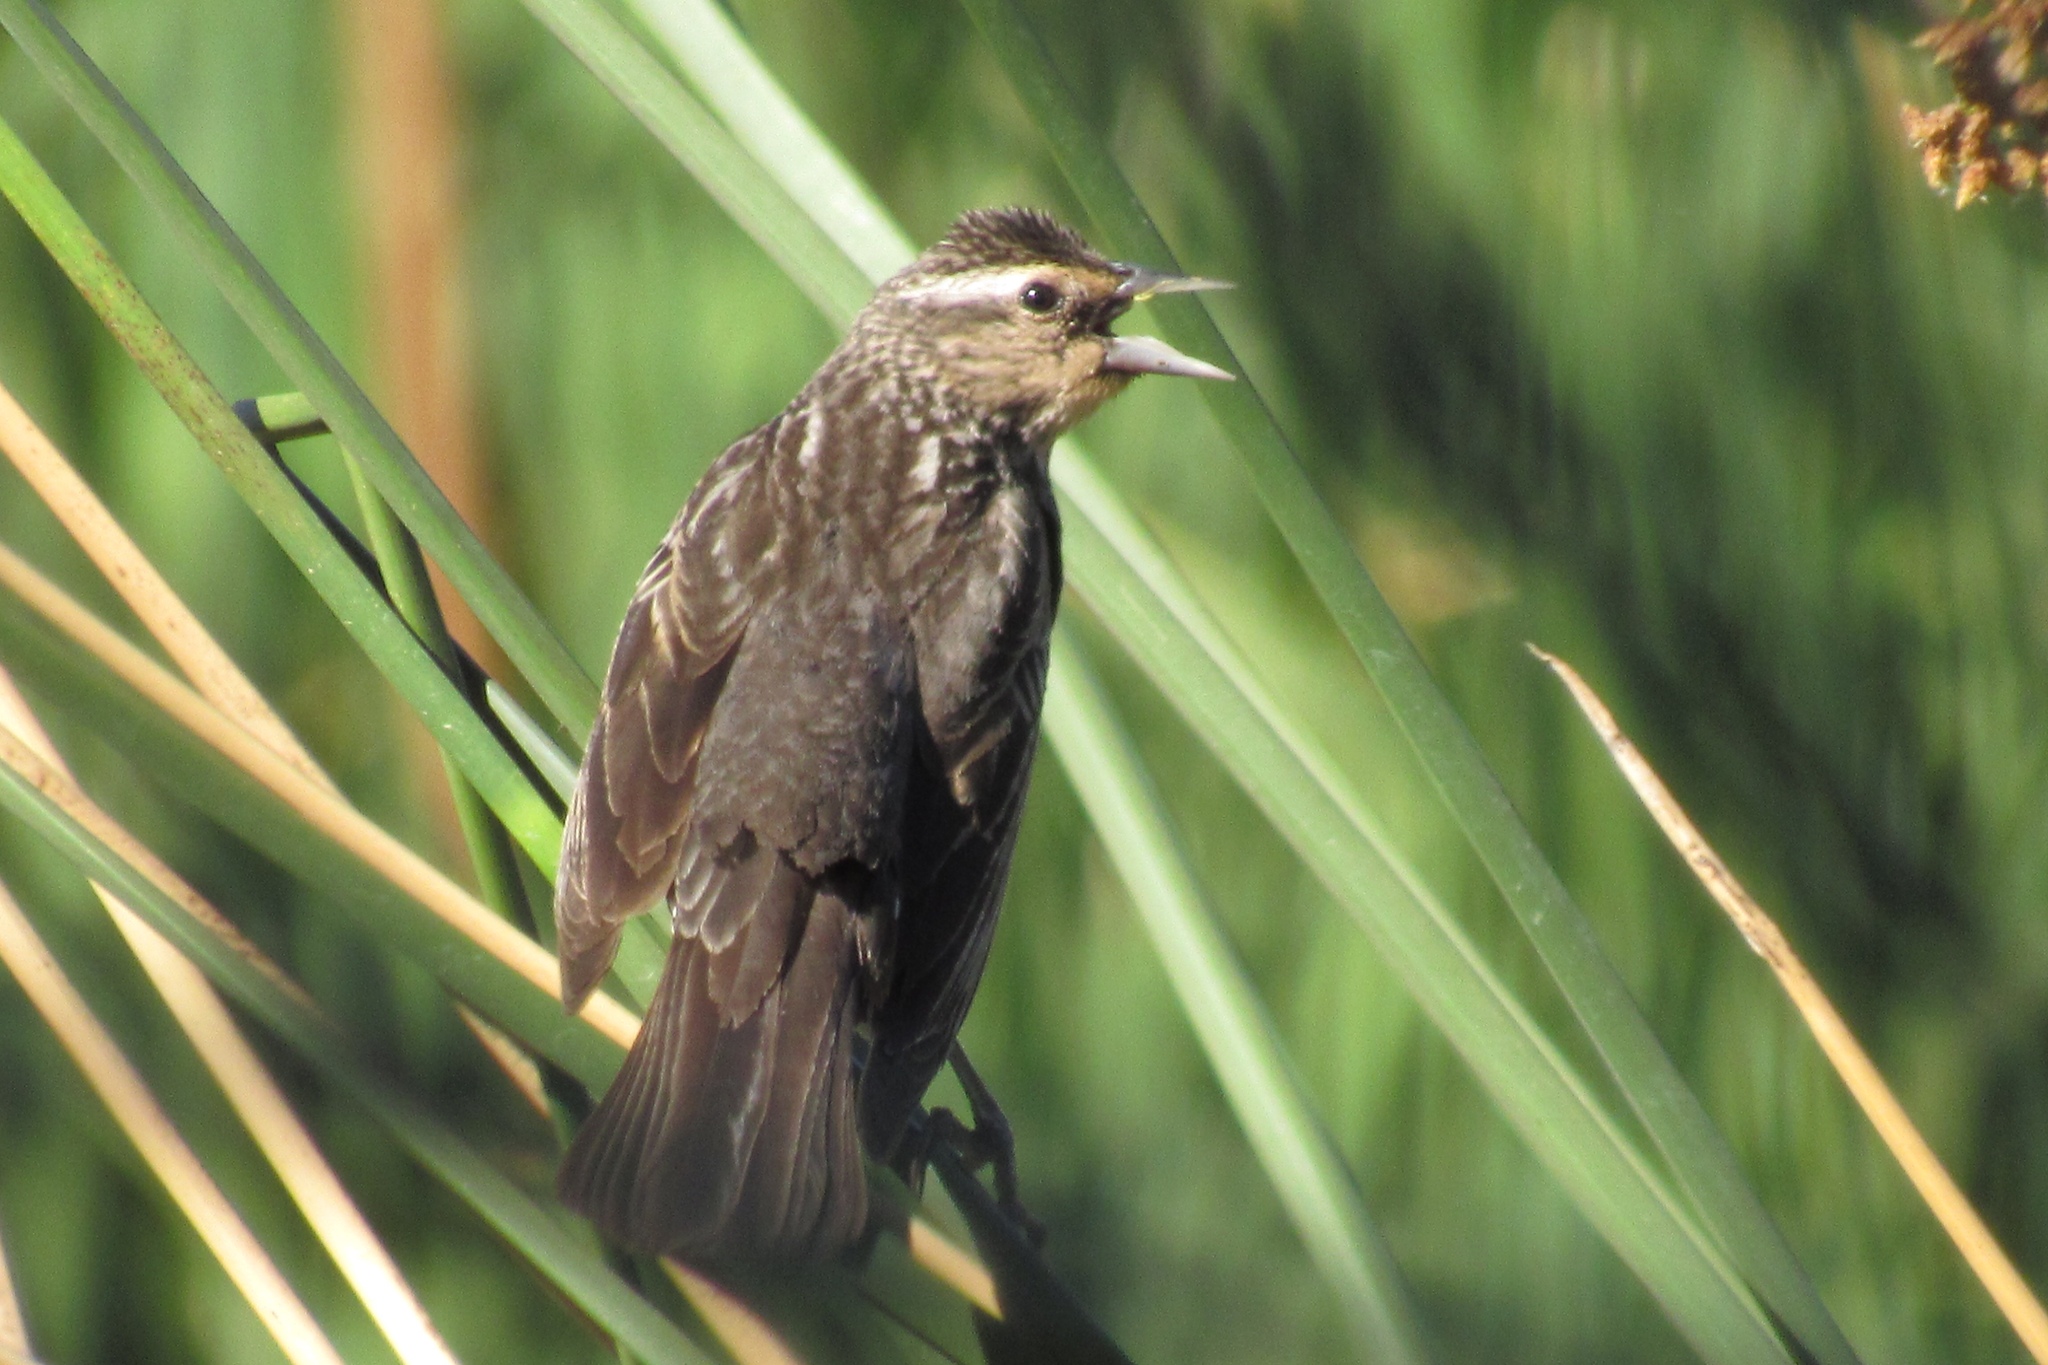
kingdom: Animalia
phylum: Chordata
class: Aves
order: Passeriformes
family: Icteridae
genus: Agelaius
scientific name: Agelaius phoeniceus
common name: Red-winged blackbird
